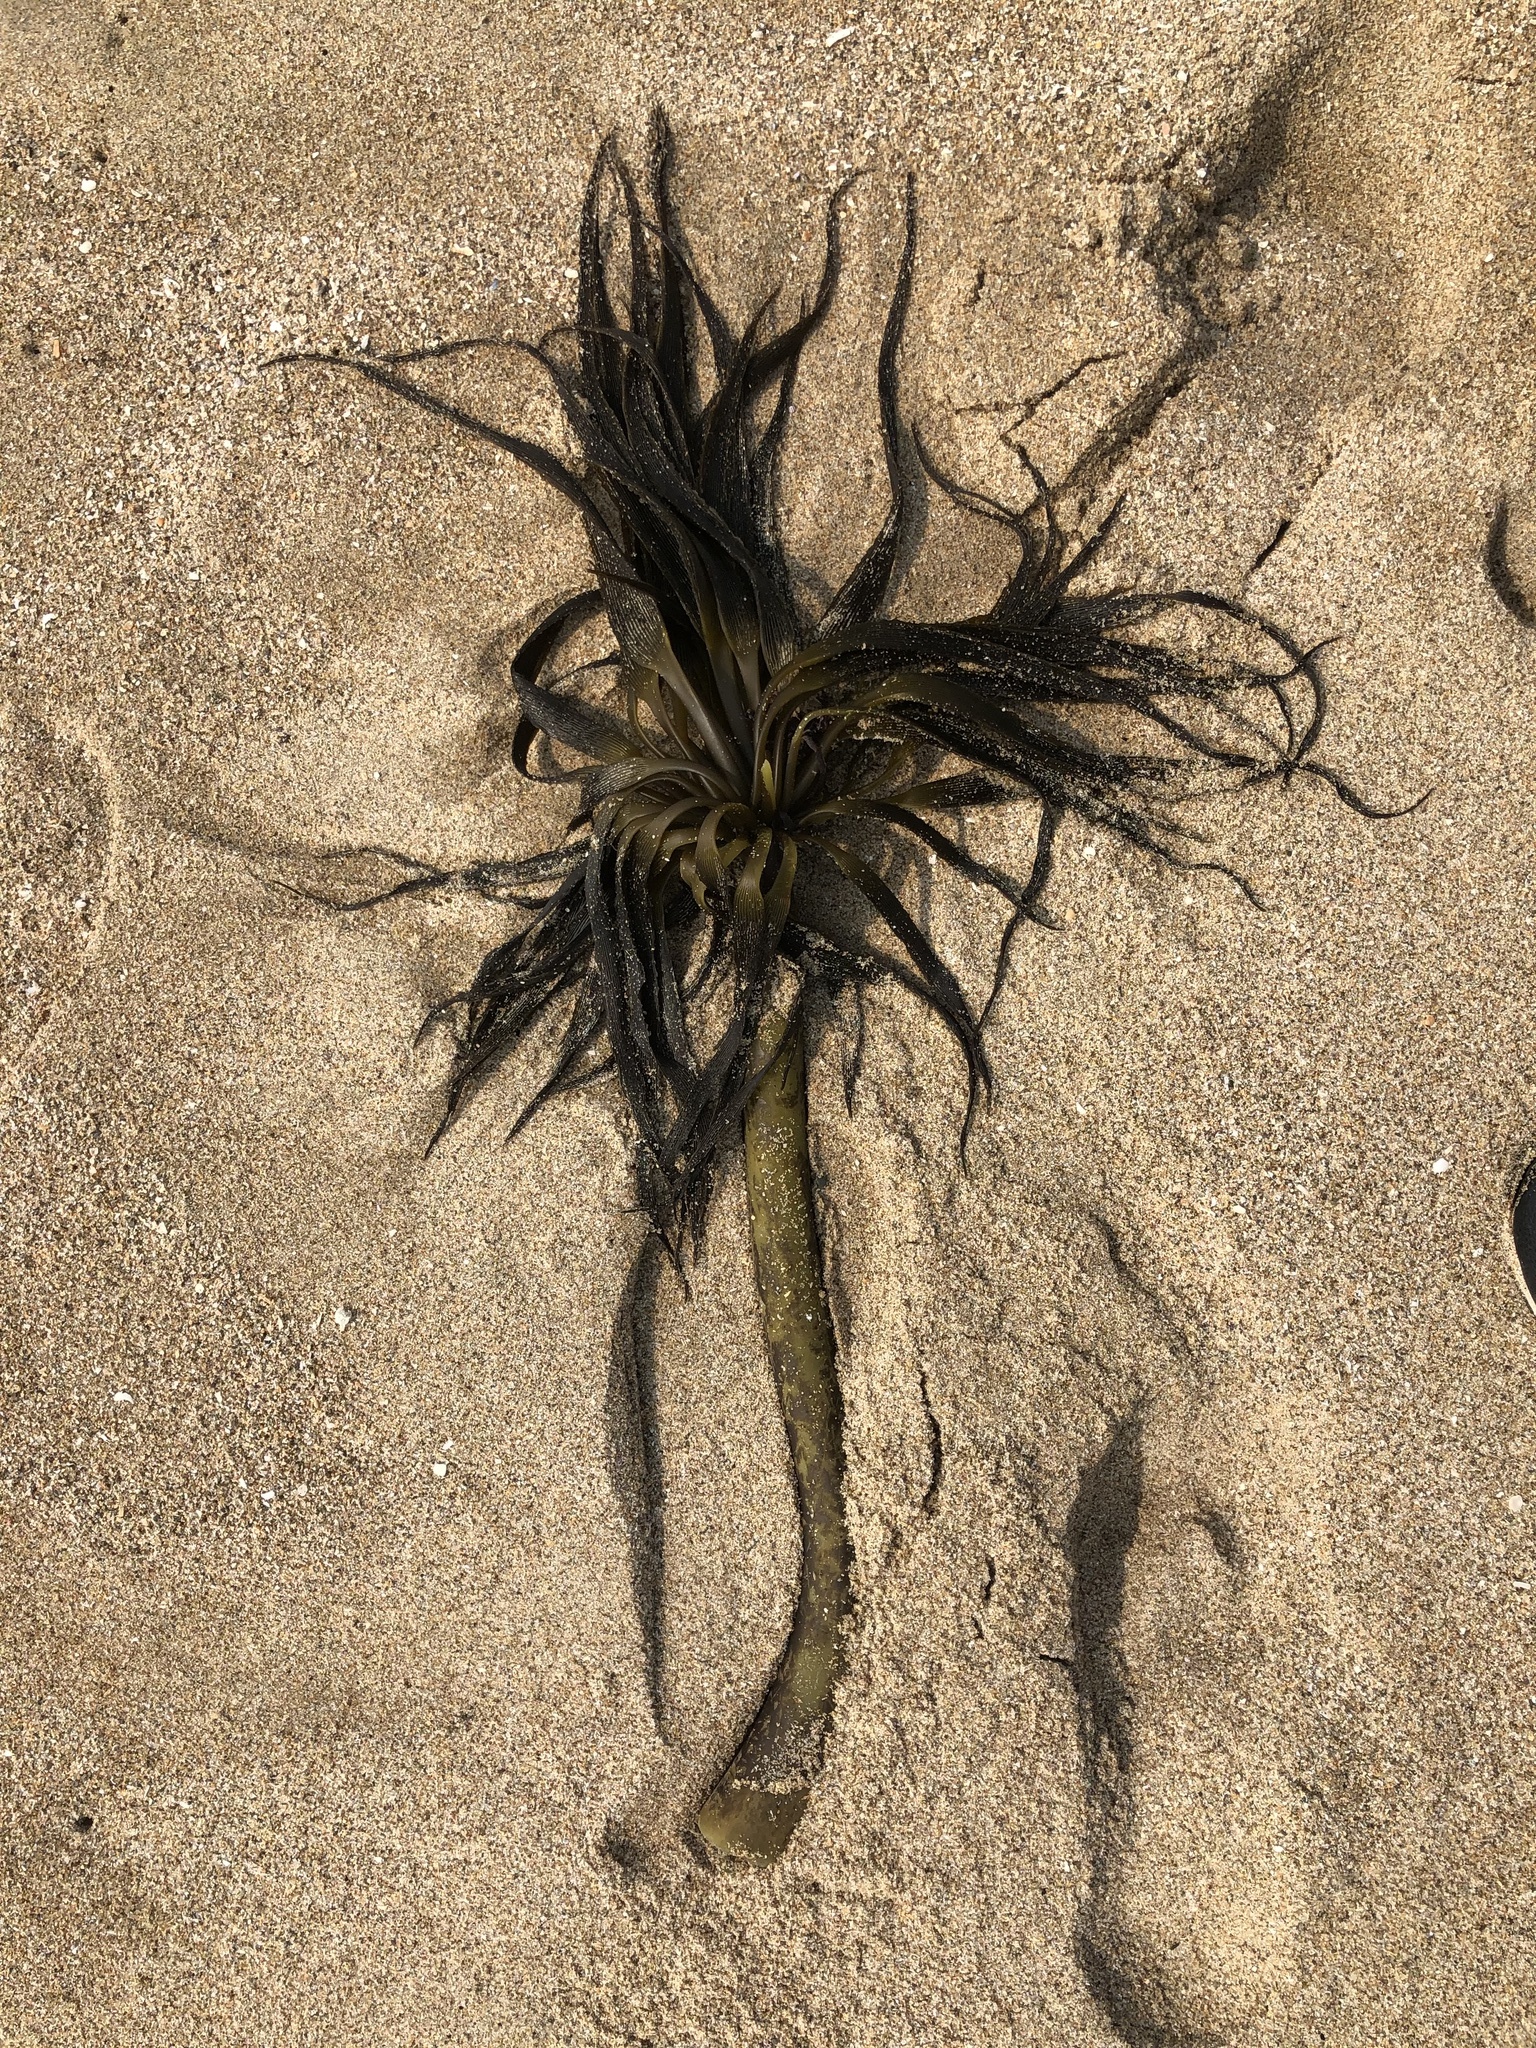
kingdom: Chromista
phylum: Ochrophyta
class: Phaeophyceae
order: Laminariales
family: Laminariaceae
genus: Postelsia
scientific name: Postelsia palmiformis
